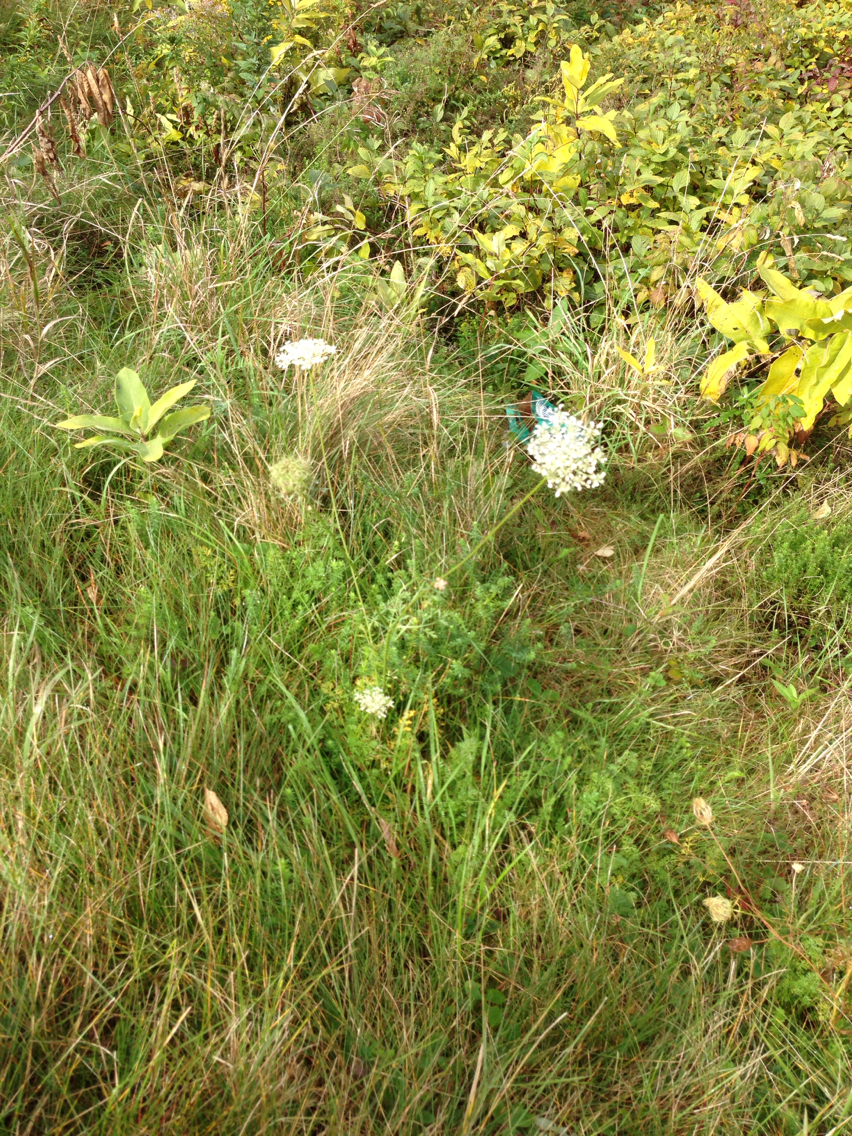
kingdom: Plantae
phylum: Tracheophyta
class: Magnoliopsida
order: Apiales
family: Apiaceae
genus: Daucus
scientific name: Daucus carota
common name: Wild carrot
